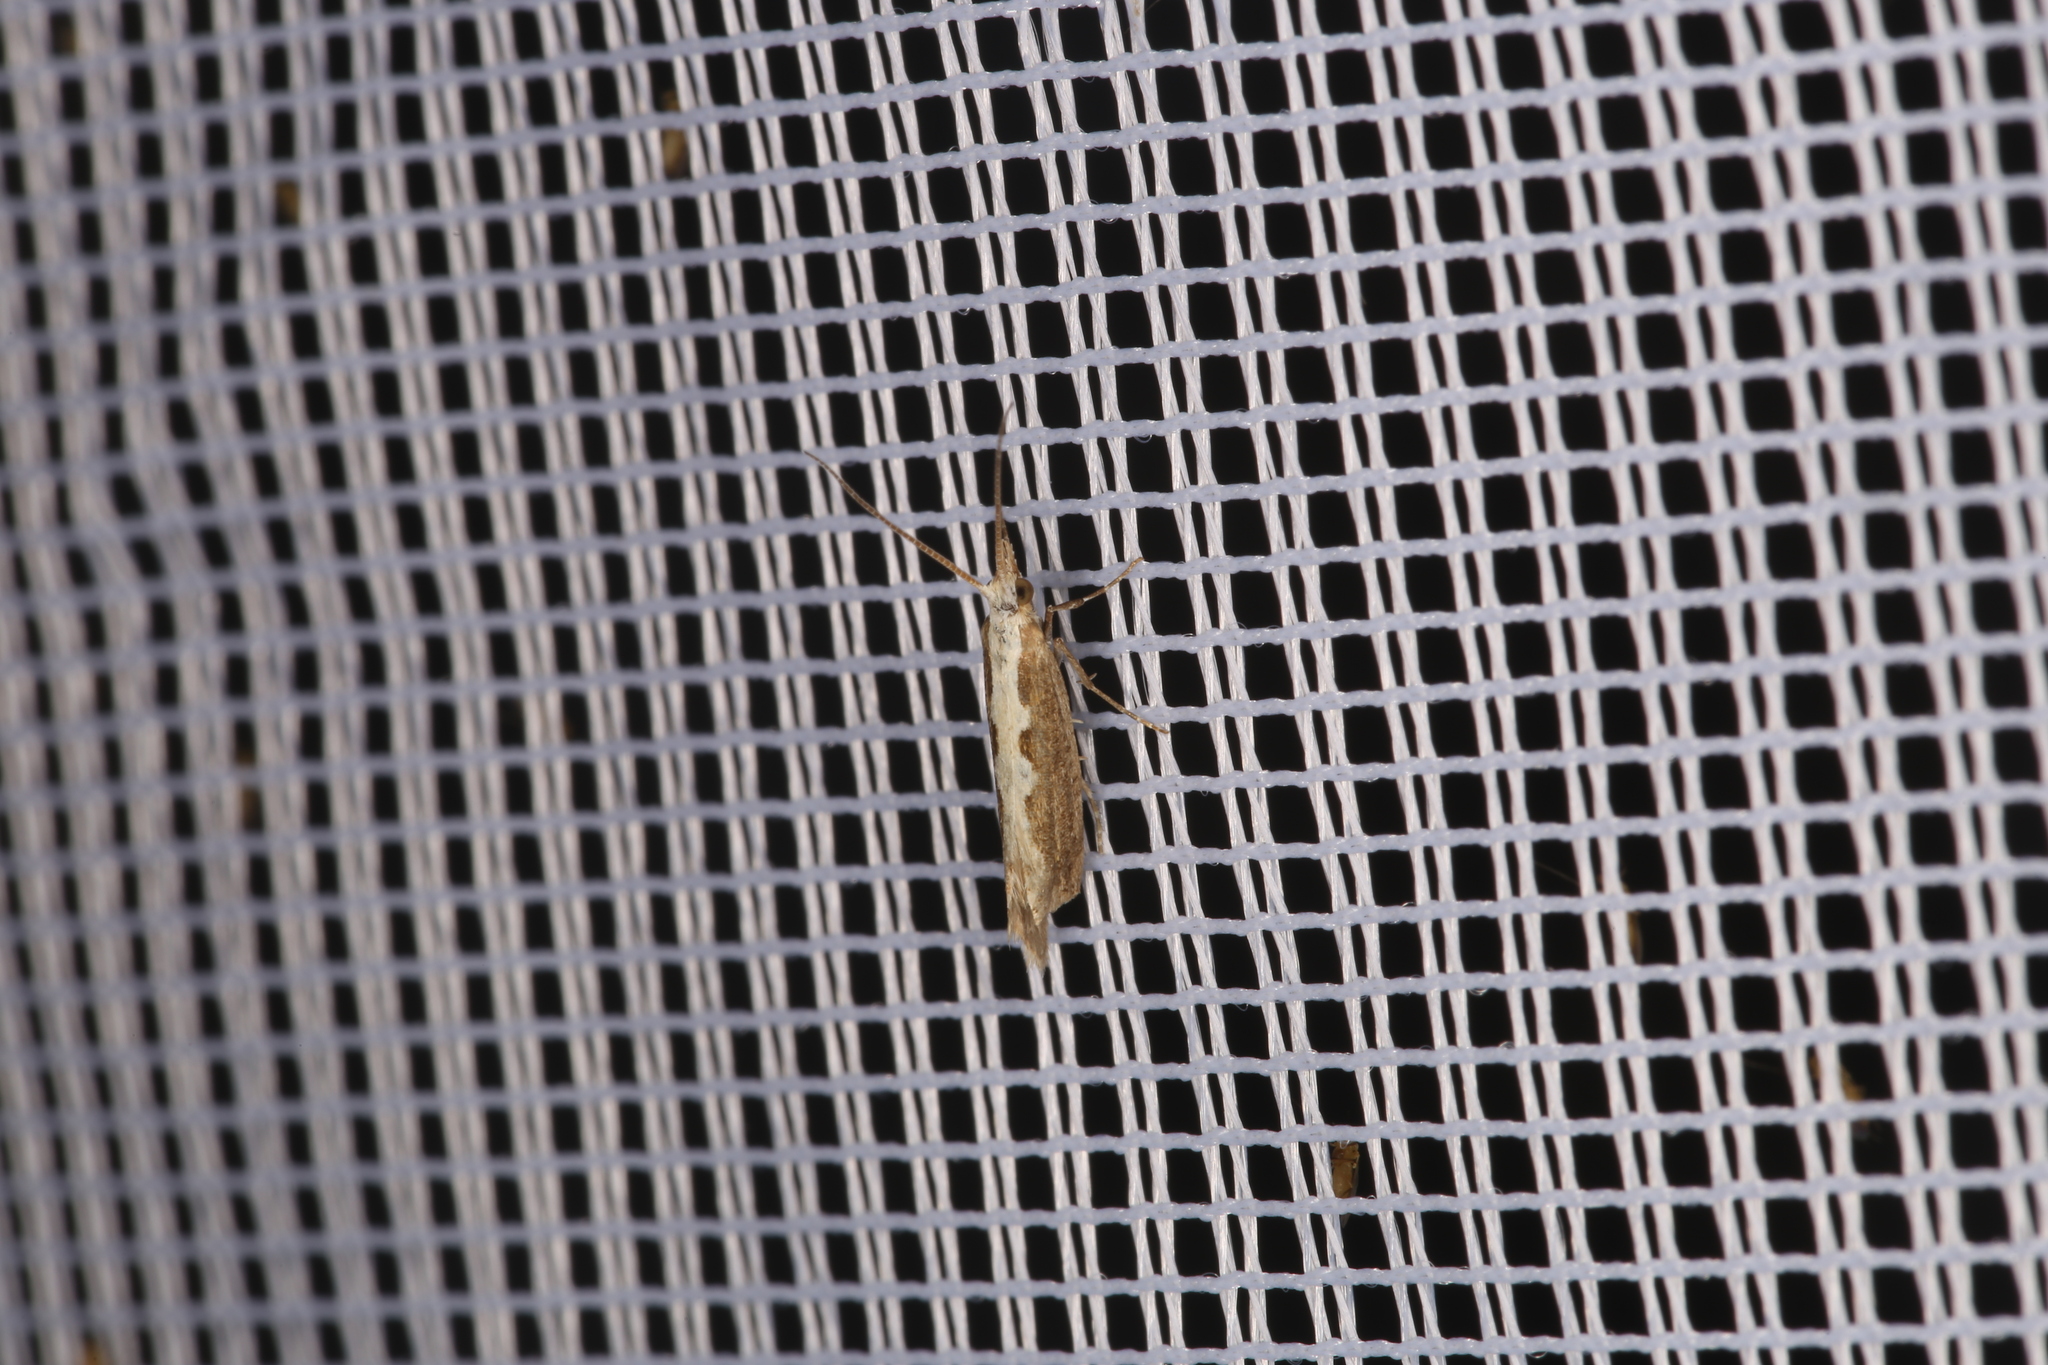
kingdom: Animalia
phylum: Arthropoda
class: Insecta
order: Lepidoptera
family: Plutellidae
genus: Plutella
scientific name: Plutella xylostella
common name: Diamond-back moth
